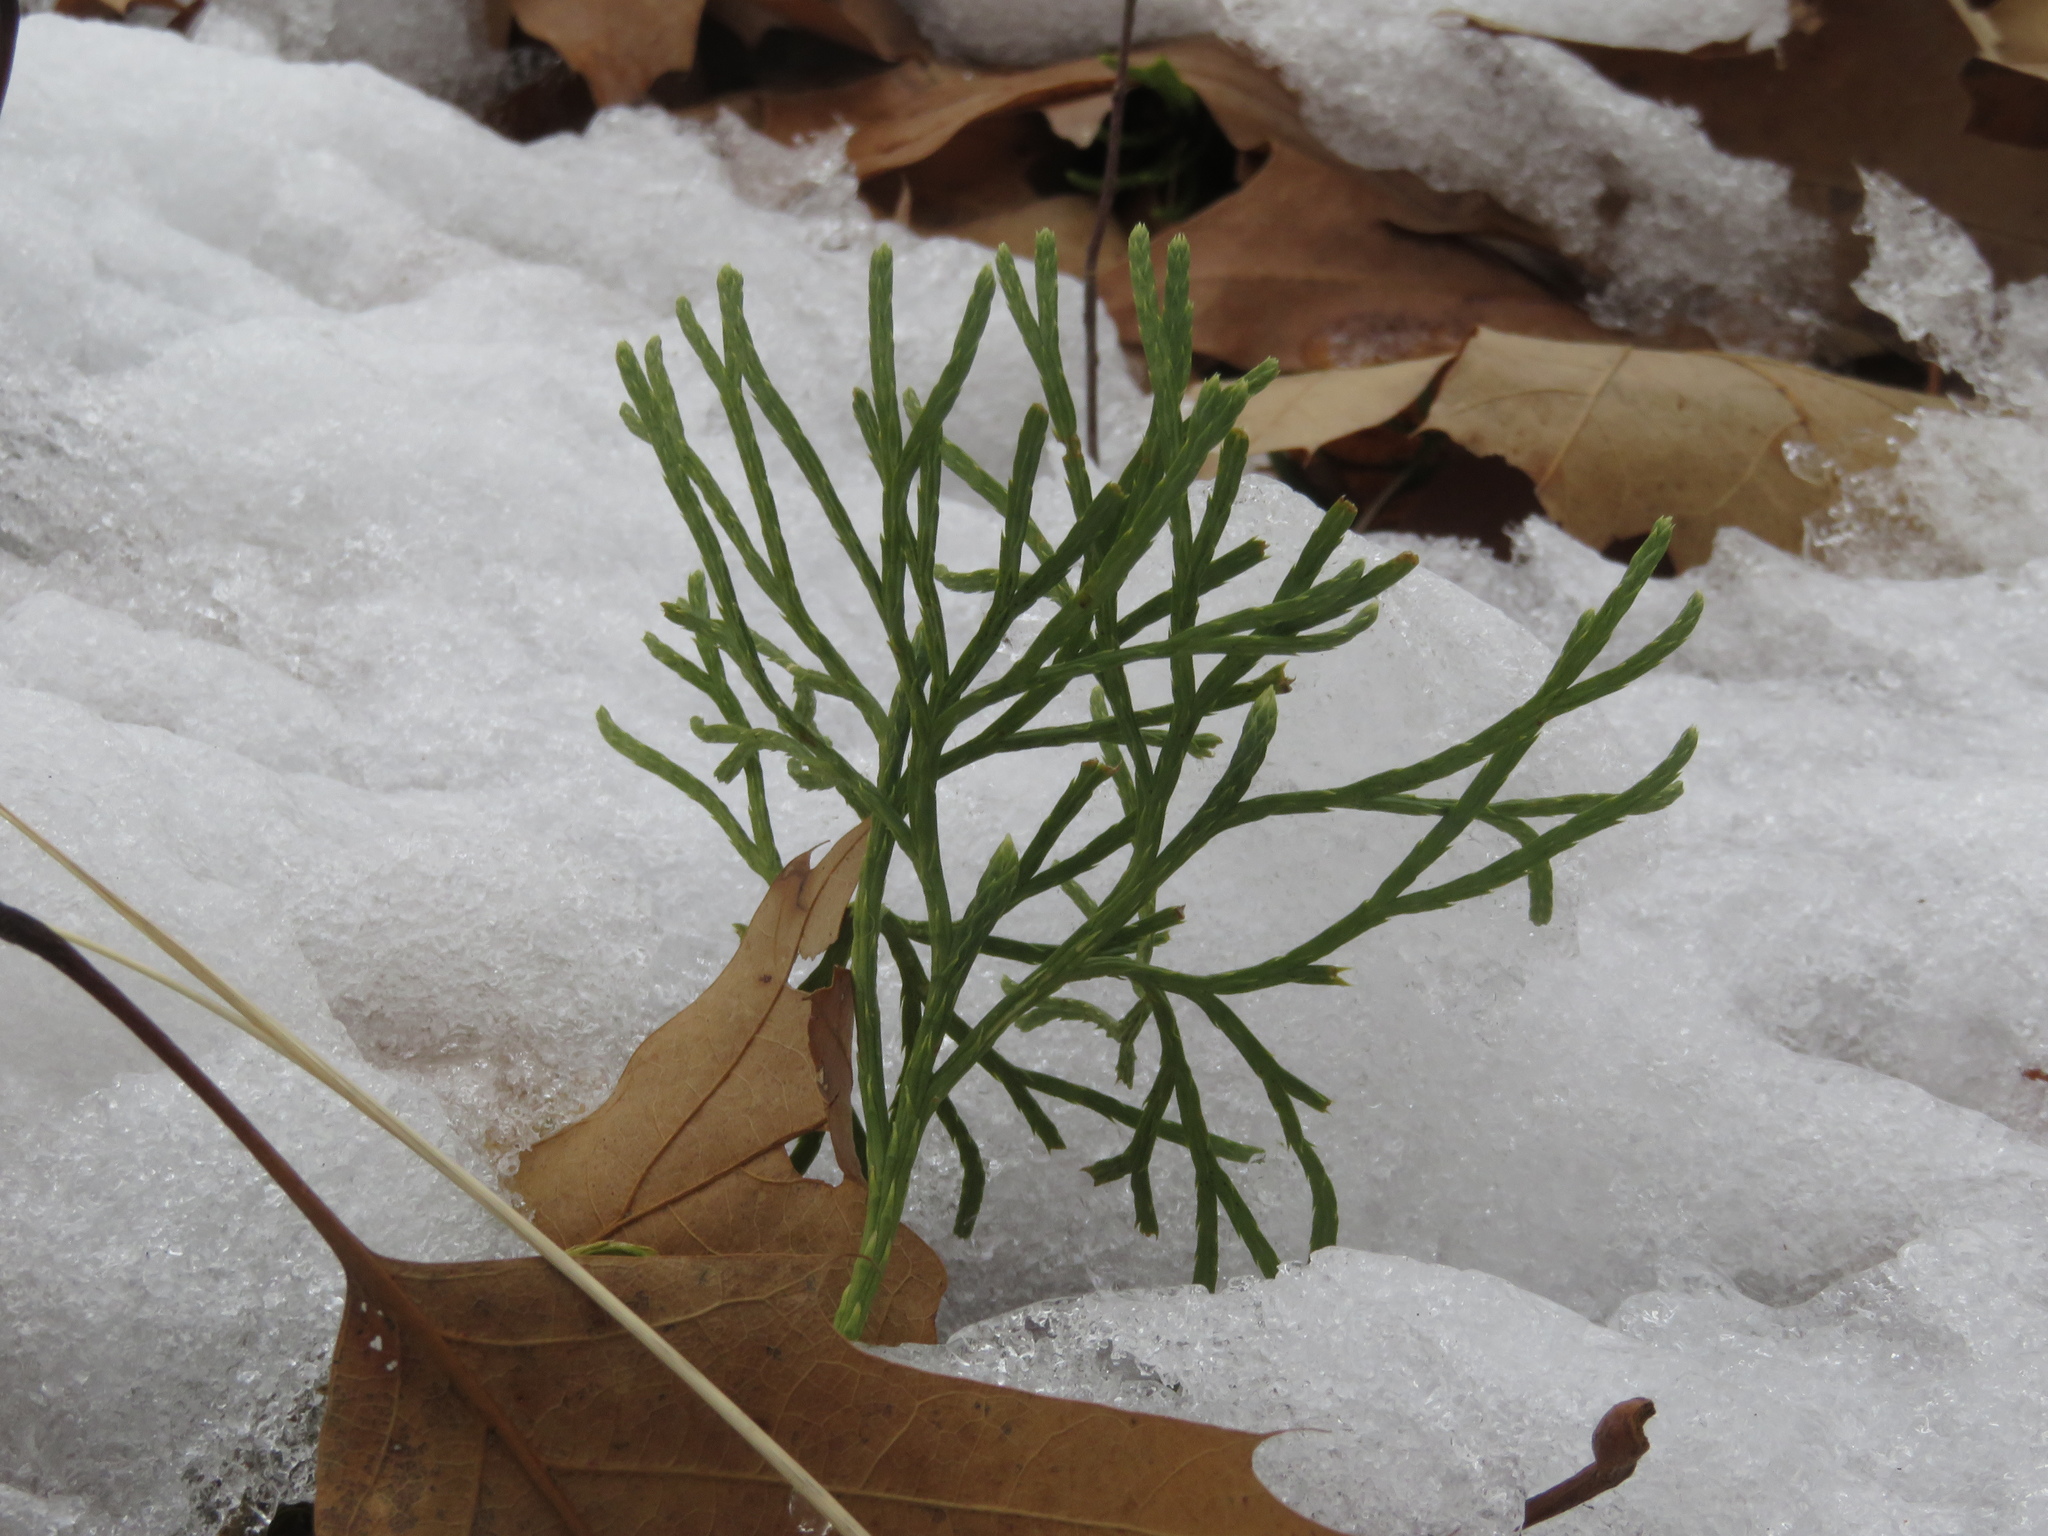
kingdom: Plantae
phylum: Tracheophyta
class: Lycopodiopsida
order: Lycopodiales
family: Lycopodiaceae
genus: Diphasiastrum
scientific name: Diphasiastrum digitatum
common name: Southern running-pine
